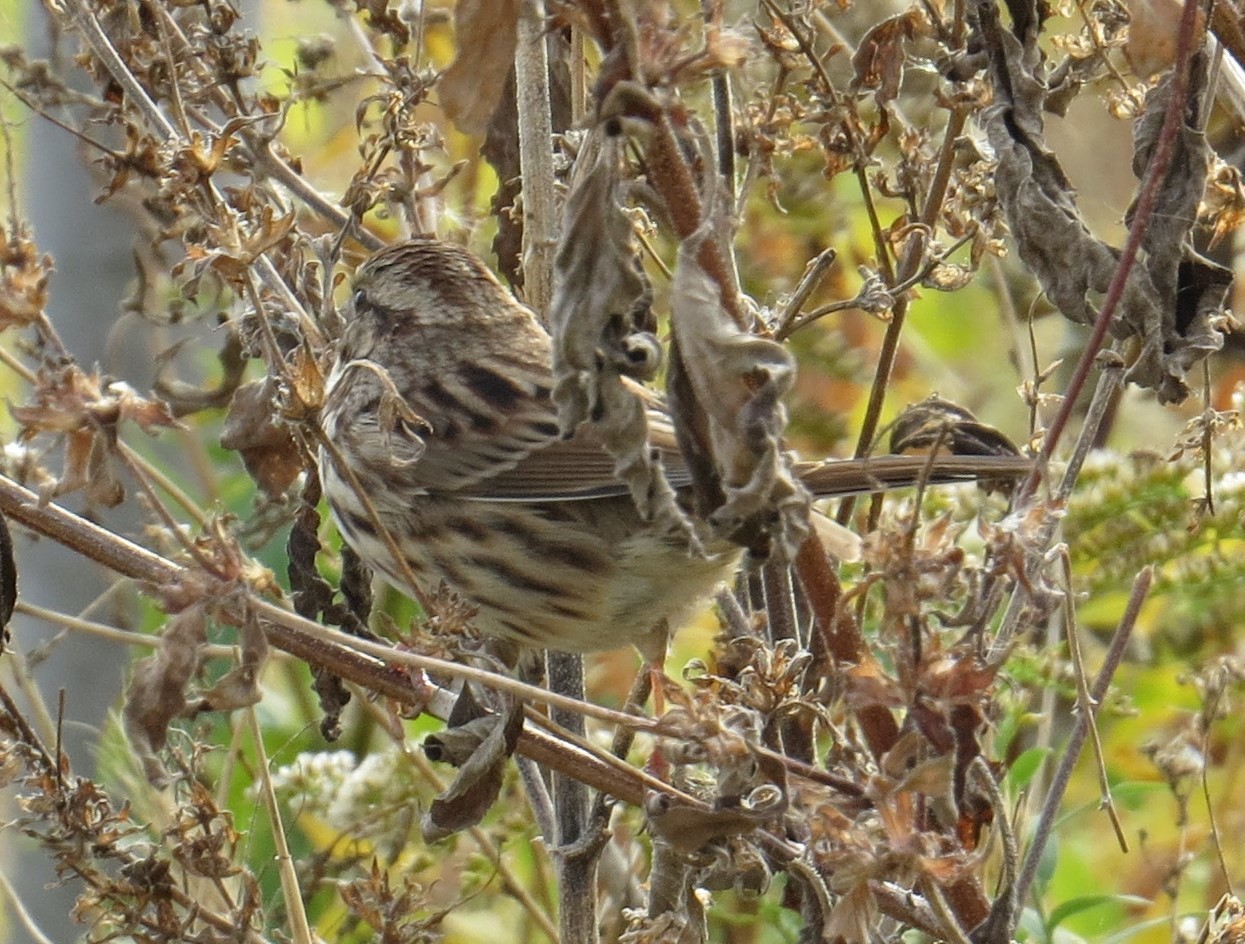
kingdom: Animalia
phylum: Chordata
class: Aves
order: Passeriformes
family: Passerellidae
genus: Melospiza
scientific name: Melospiza melodia
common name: Song sparrow
